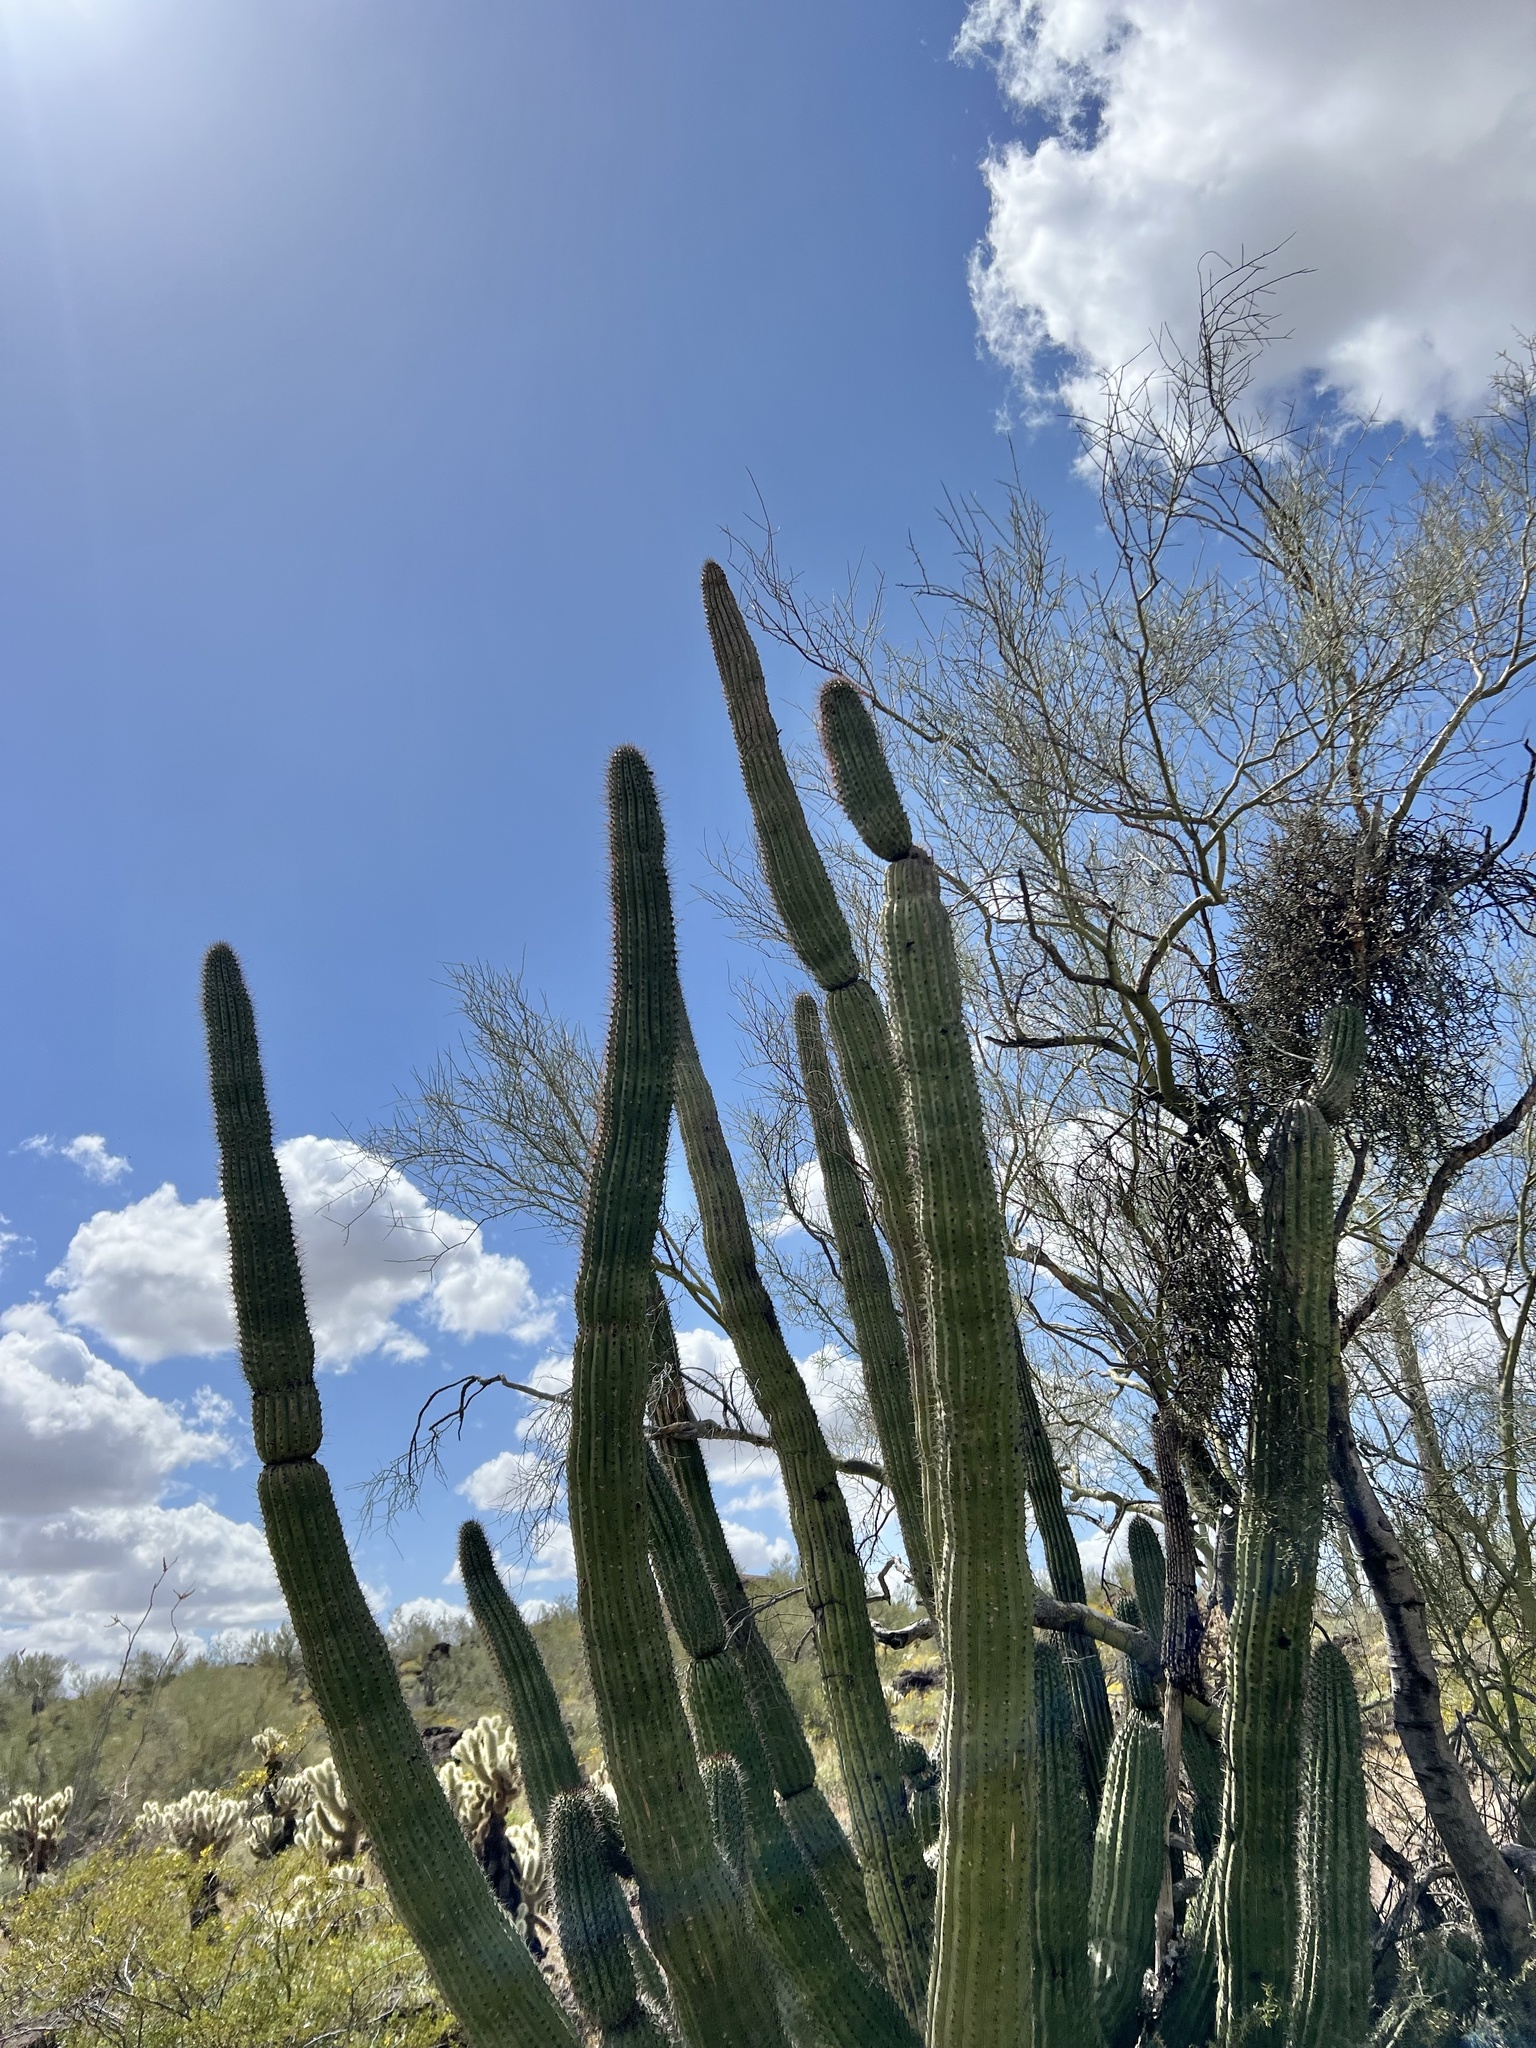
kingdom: Plantae
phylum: Tracheophyta
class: Magnoliopsida
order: Caryophyllales
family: Cactaceae
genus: Stenocereus
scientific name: Stenocereus thurberi
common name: Organ pipe cactus
